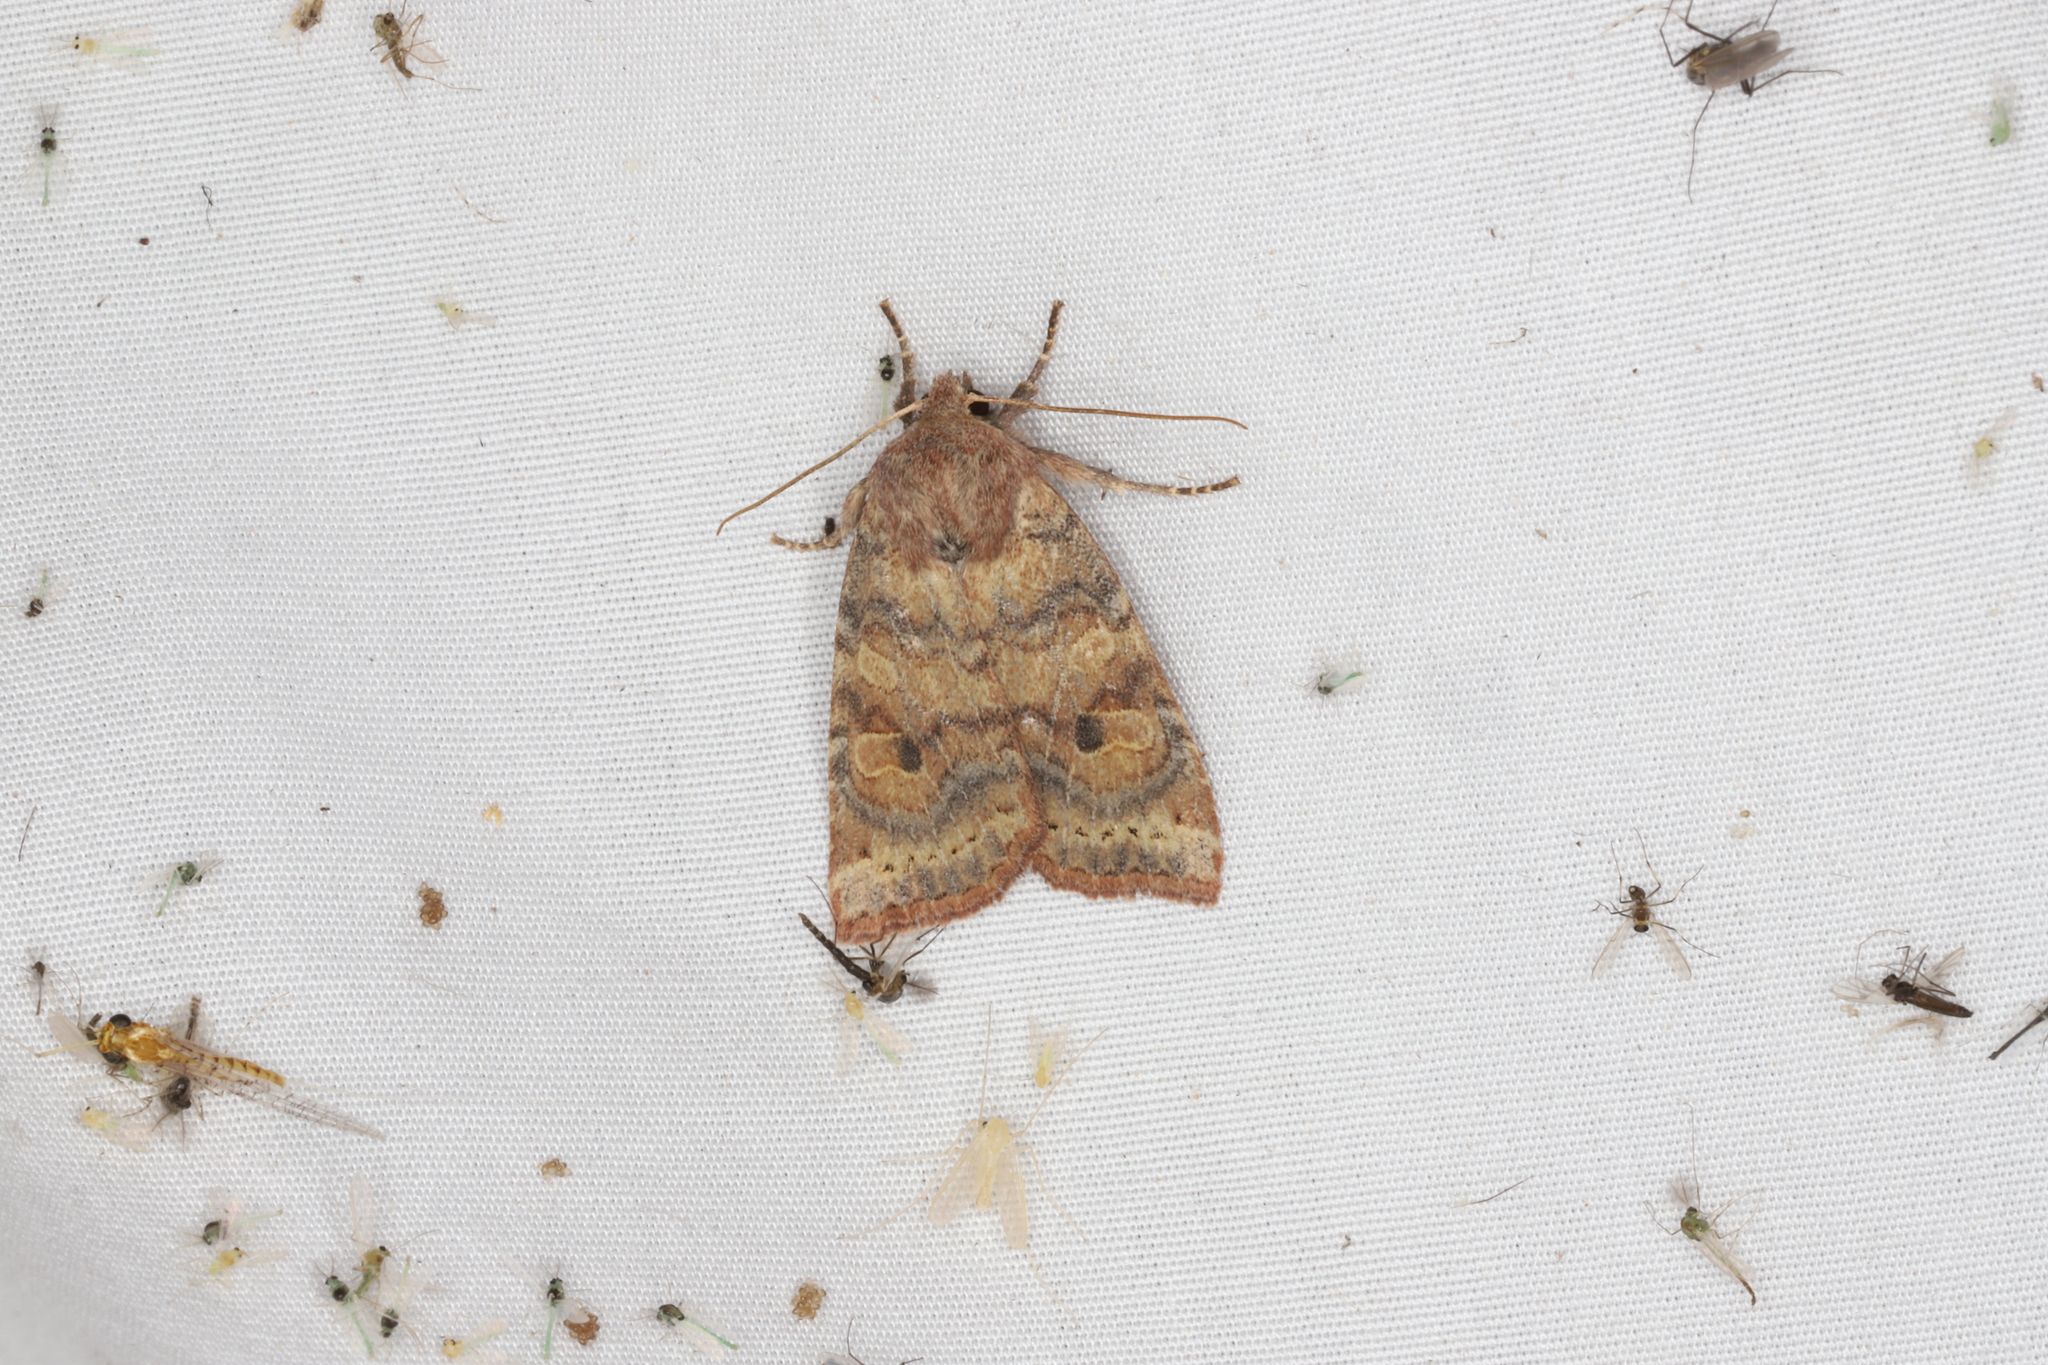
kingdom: Animalia
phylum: Arthropoda
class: Insecta
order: Lepidoptera
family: Noctuidae
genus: Anathix
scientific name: Anathix puta
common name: Puta sallow
